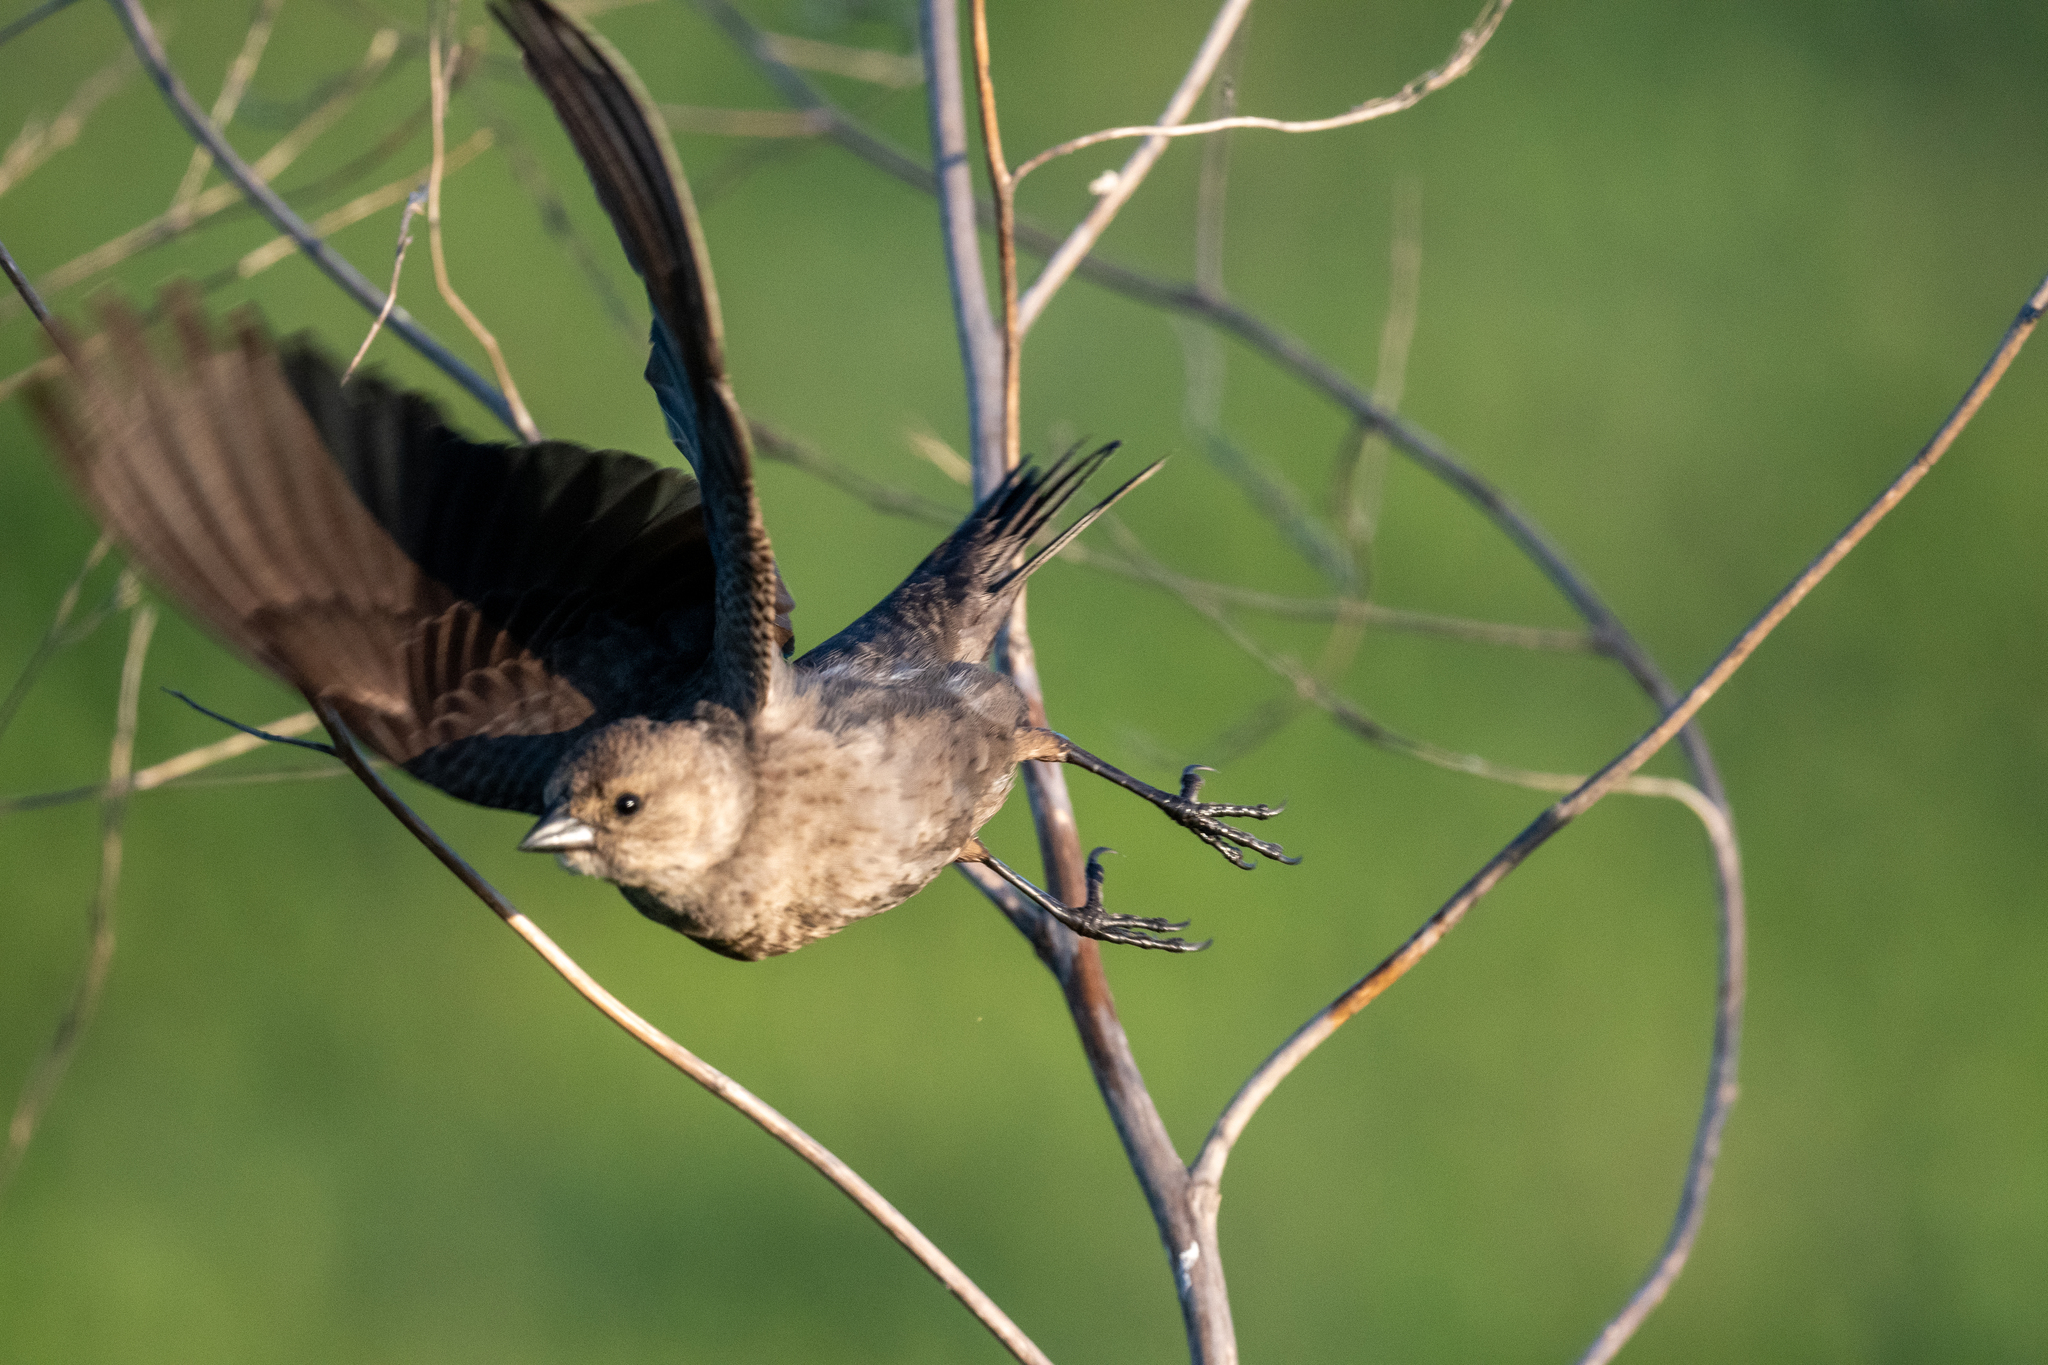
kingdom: Animalia
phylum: Chordata
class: Aves
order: Passeriformes
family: Icteridae
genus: Molothrus
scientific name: Molothrus ater
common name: Brown-headed cowbird
